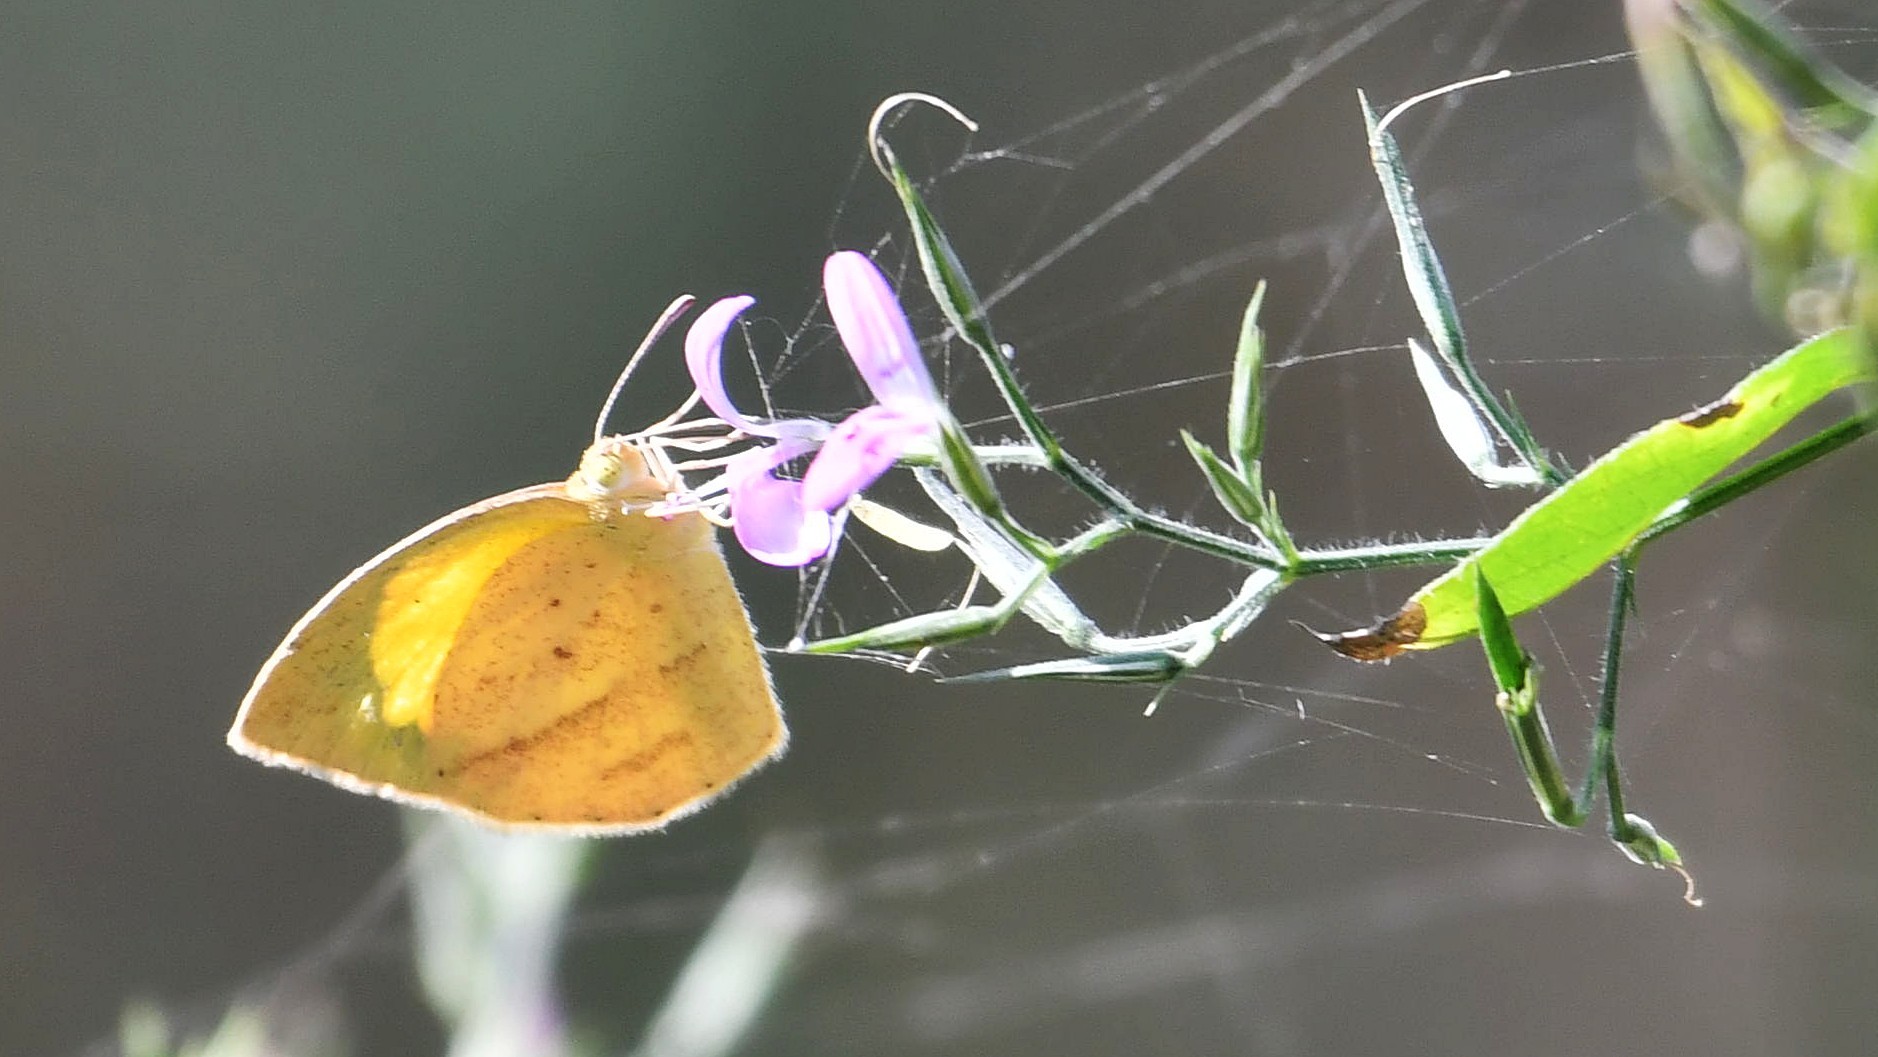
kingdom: Animalia
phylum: Arthropoda
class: Insecta
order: Lepidoptera
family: Pieridae
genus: Eurema
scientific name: Eurema laeta
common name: Spotless grass yellow
